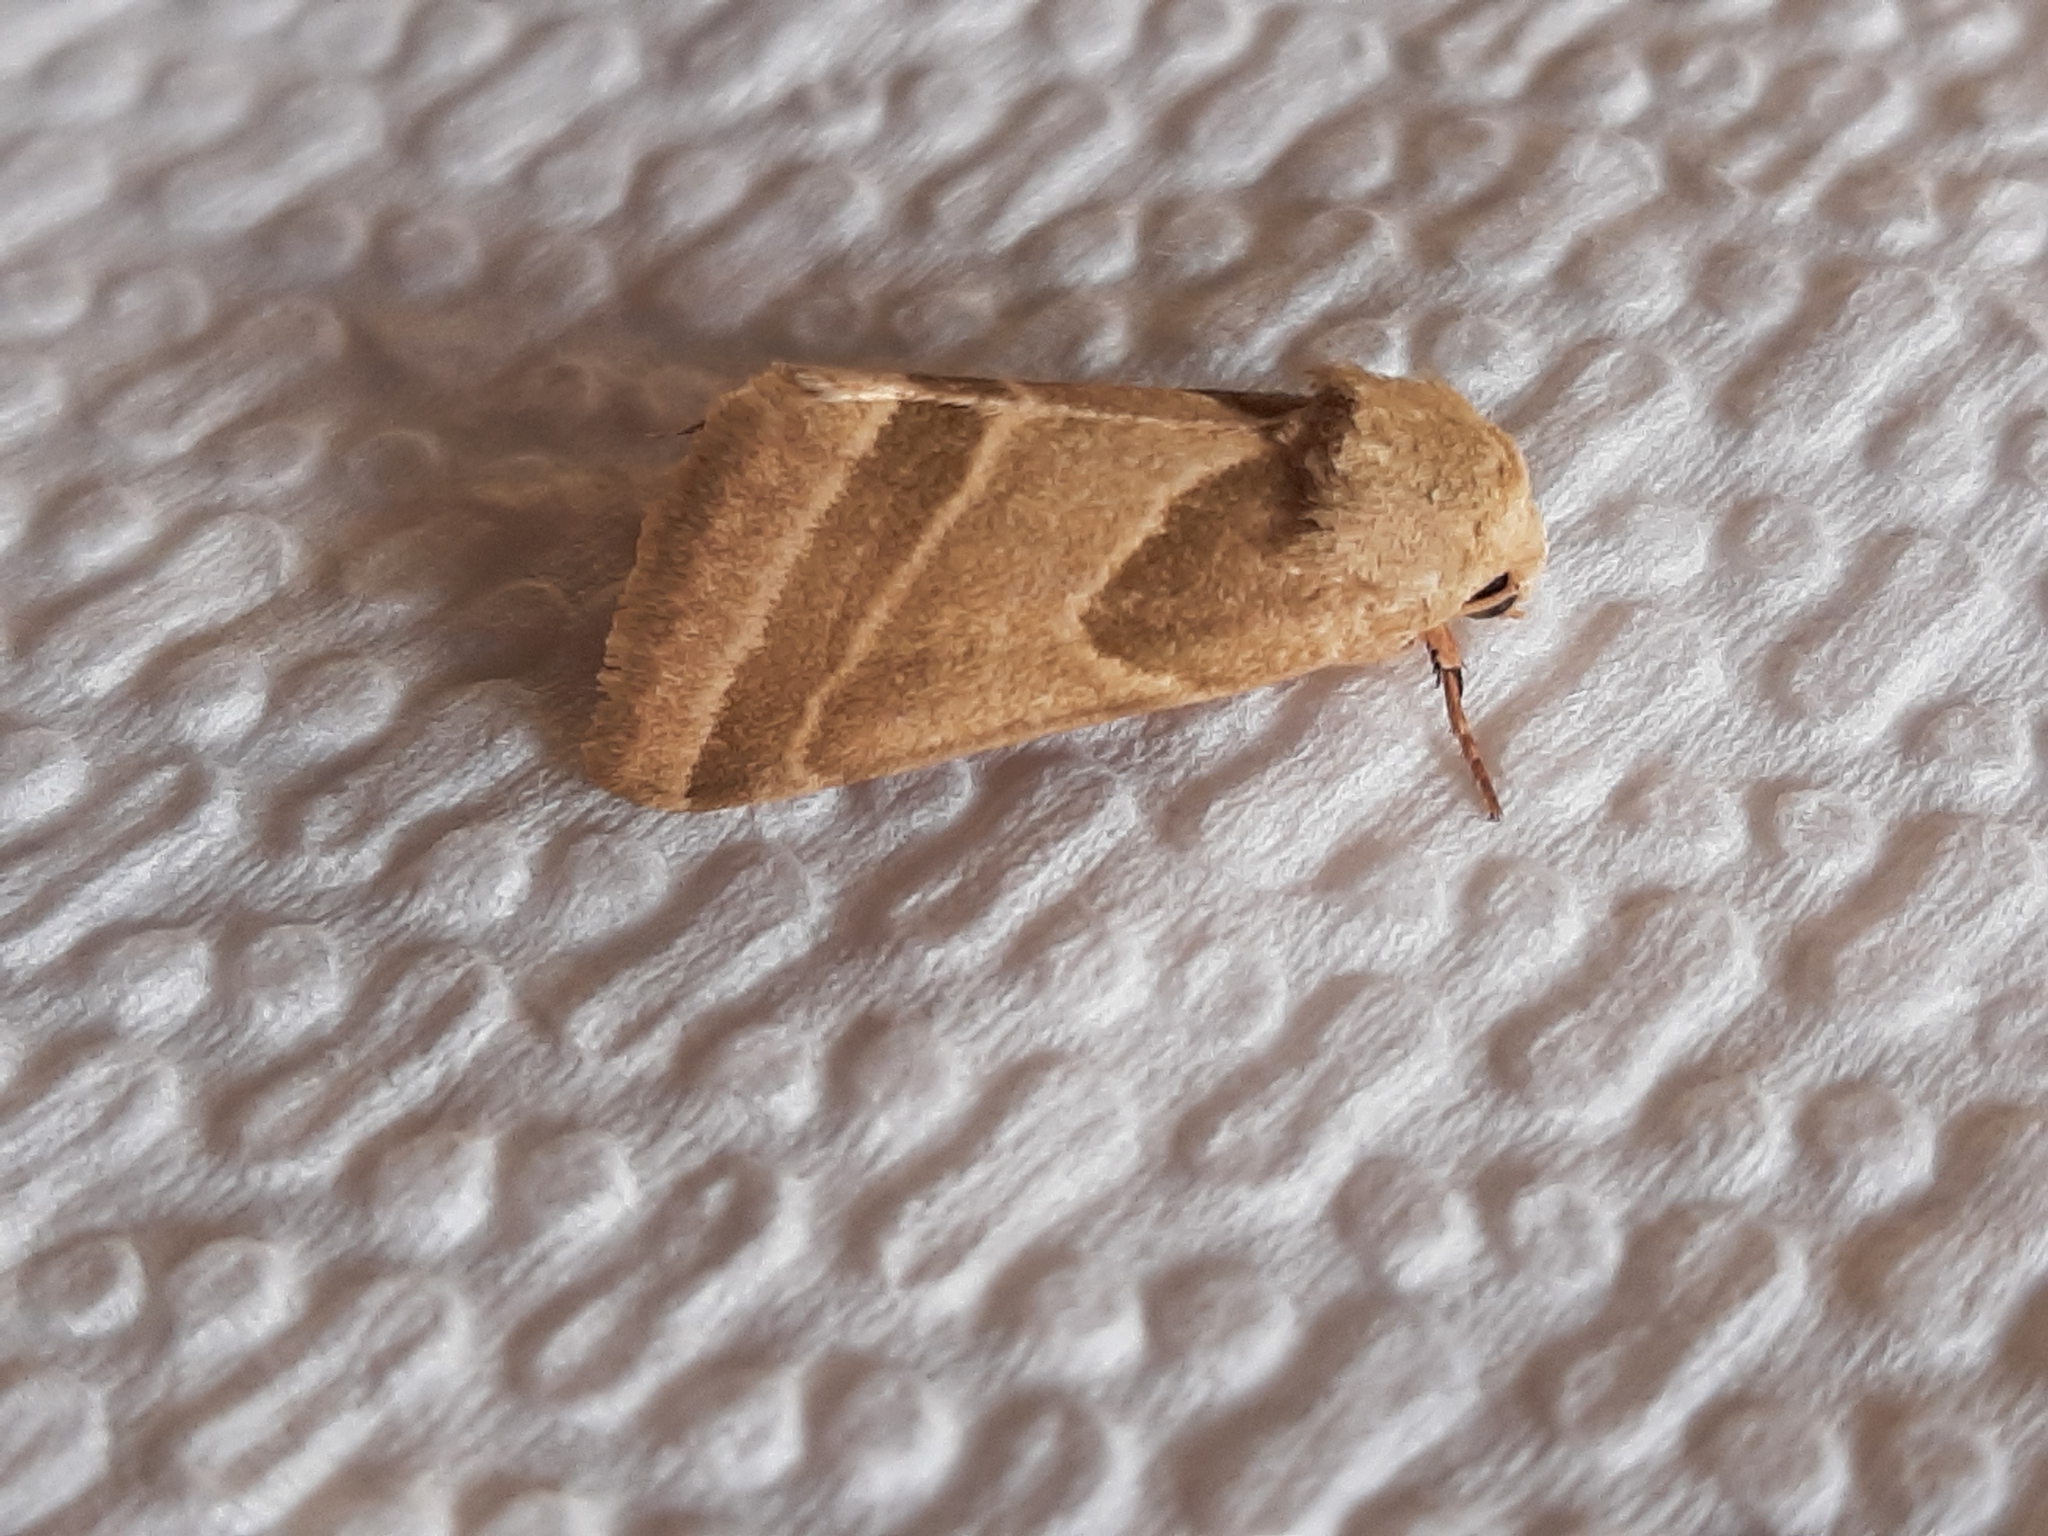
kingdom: Animalia
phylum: Arthropoda
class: Insecta
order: Lepidoptera
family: Noctuidae
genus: Schinia
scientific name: Schinia oleagina
